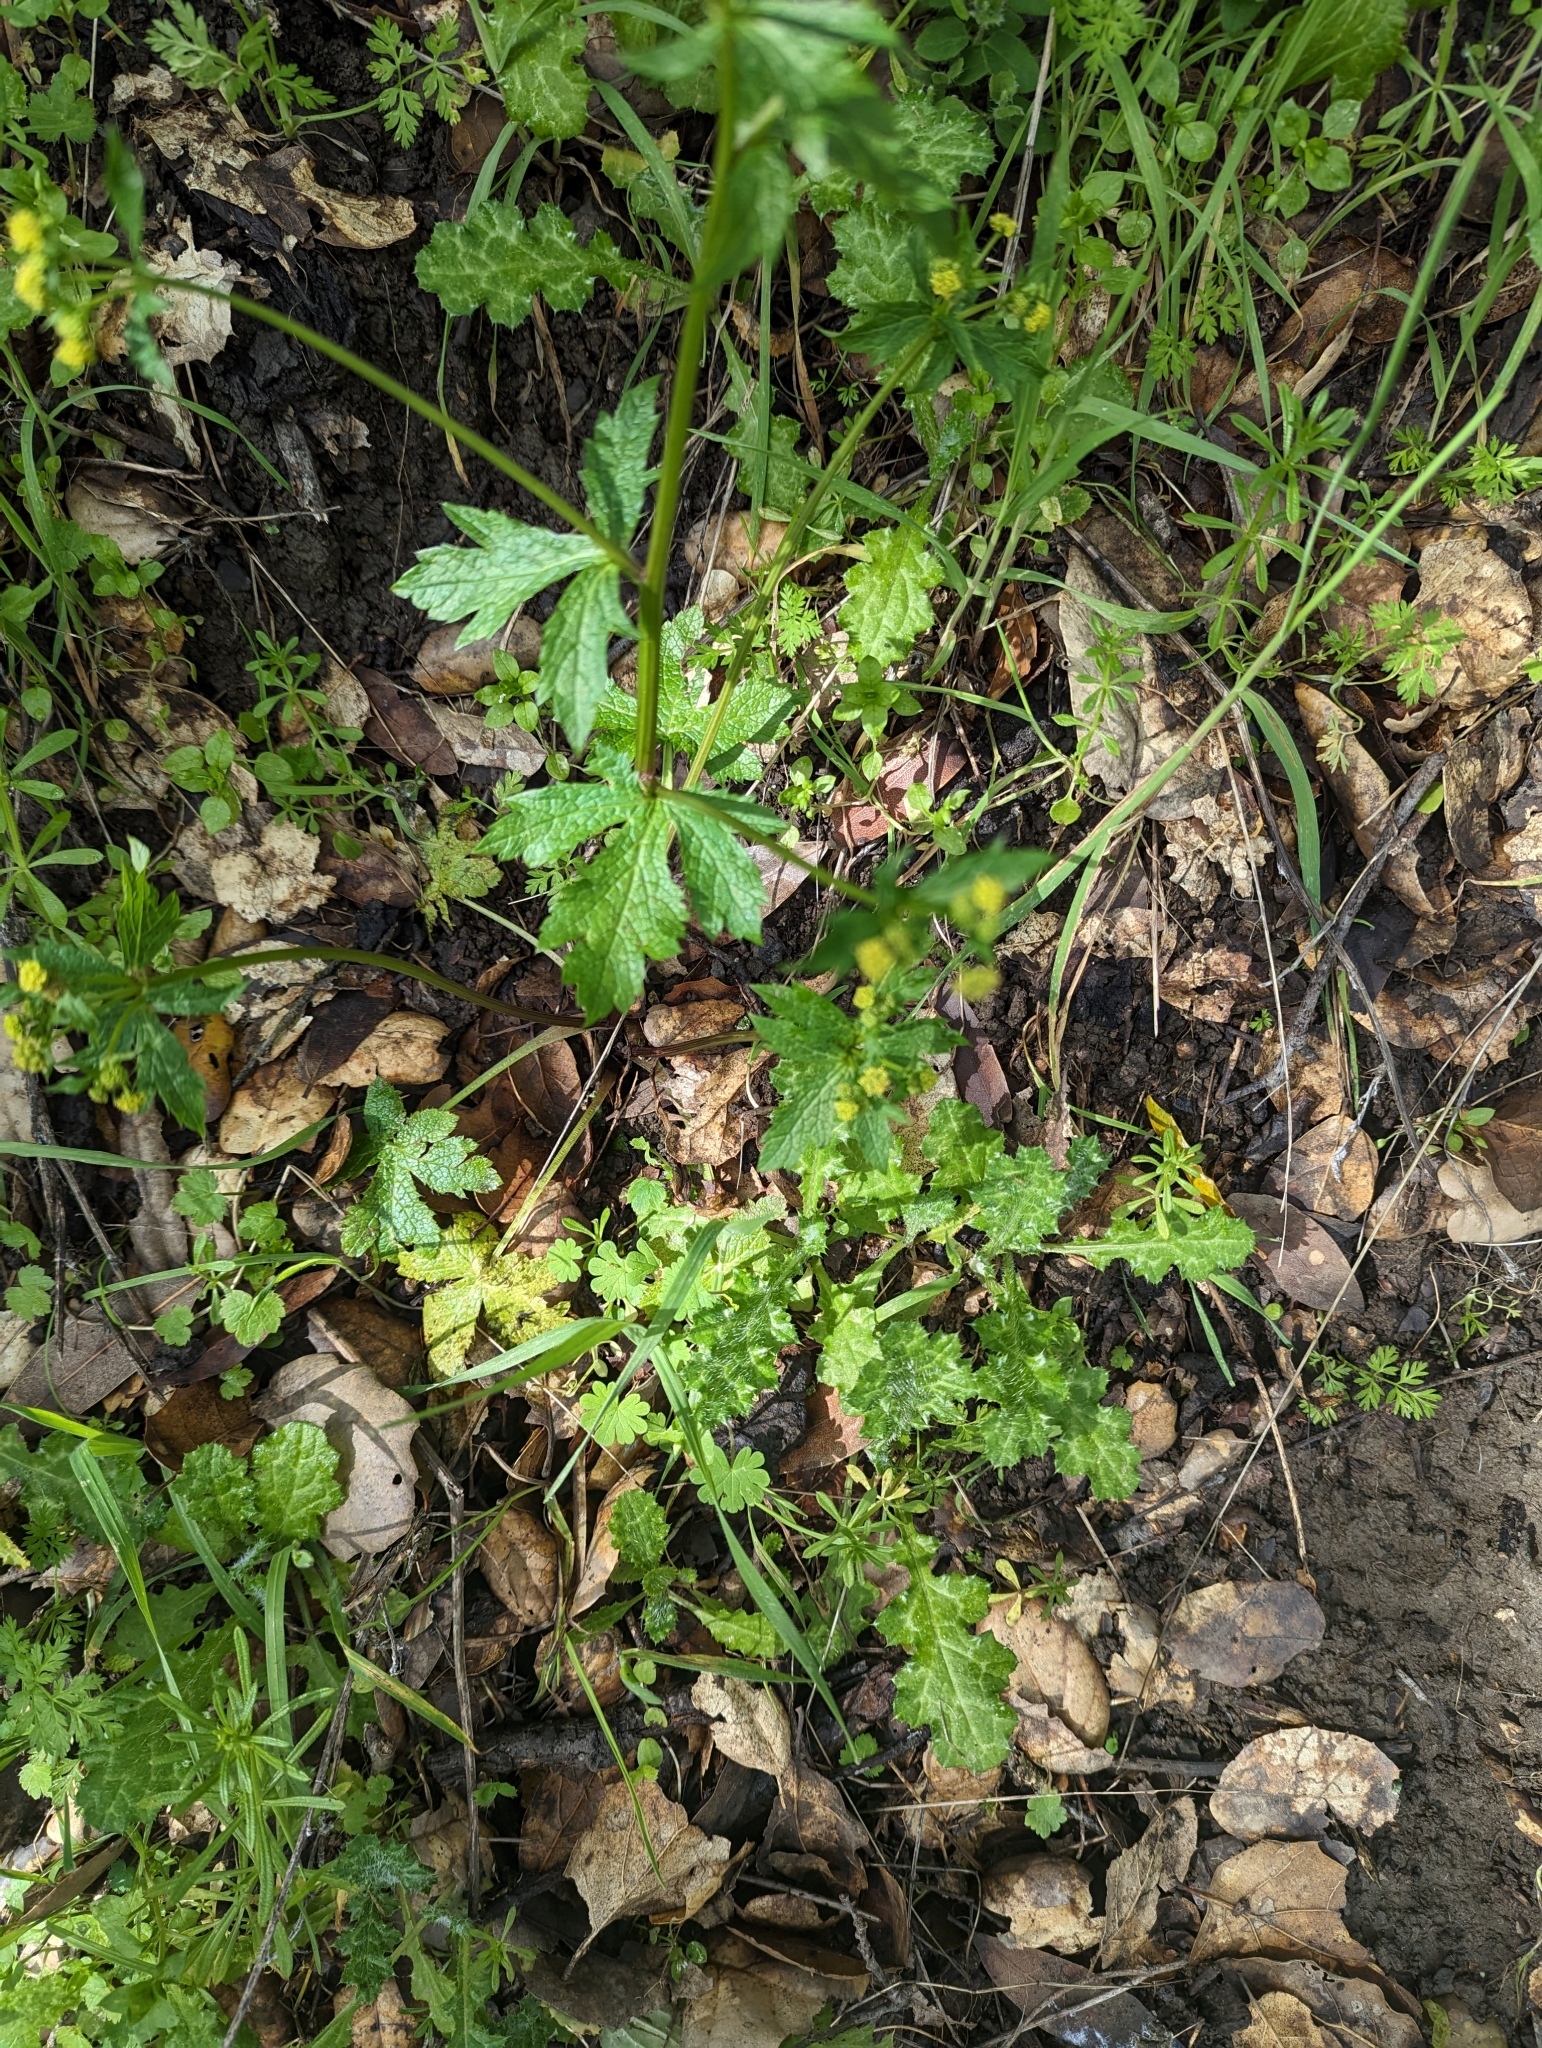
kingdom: Plantae
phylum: Tracheophyta
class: Magnoliopsida
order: Apiales
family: Apiaceae
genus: Sanicula
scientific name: Sanicula crassicaulis
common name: Western snakeroot
